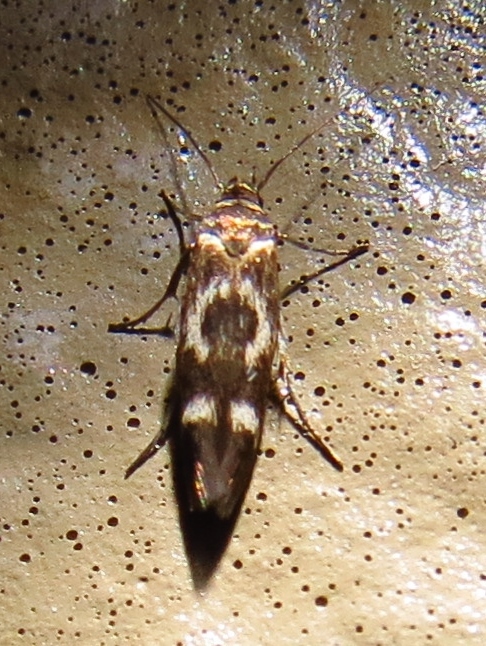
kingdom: Animalia
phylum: Arthropoda
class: Insecta
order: Lepidoptera
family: Scythrididae
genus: Scythris
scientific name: Scythris trivinctella
